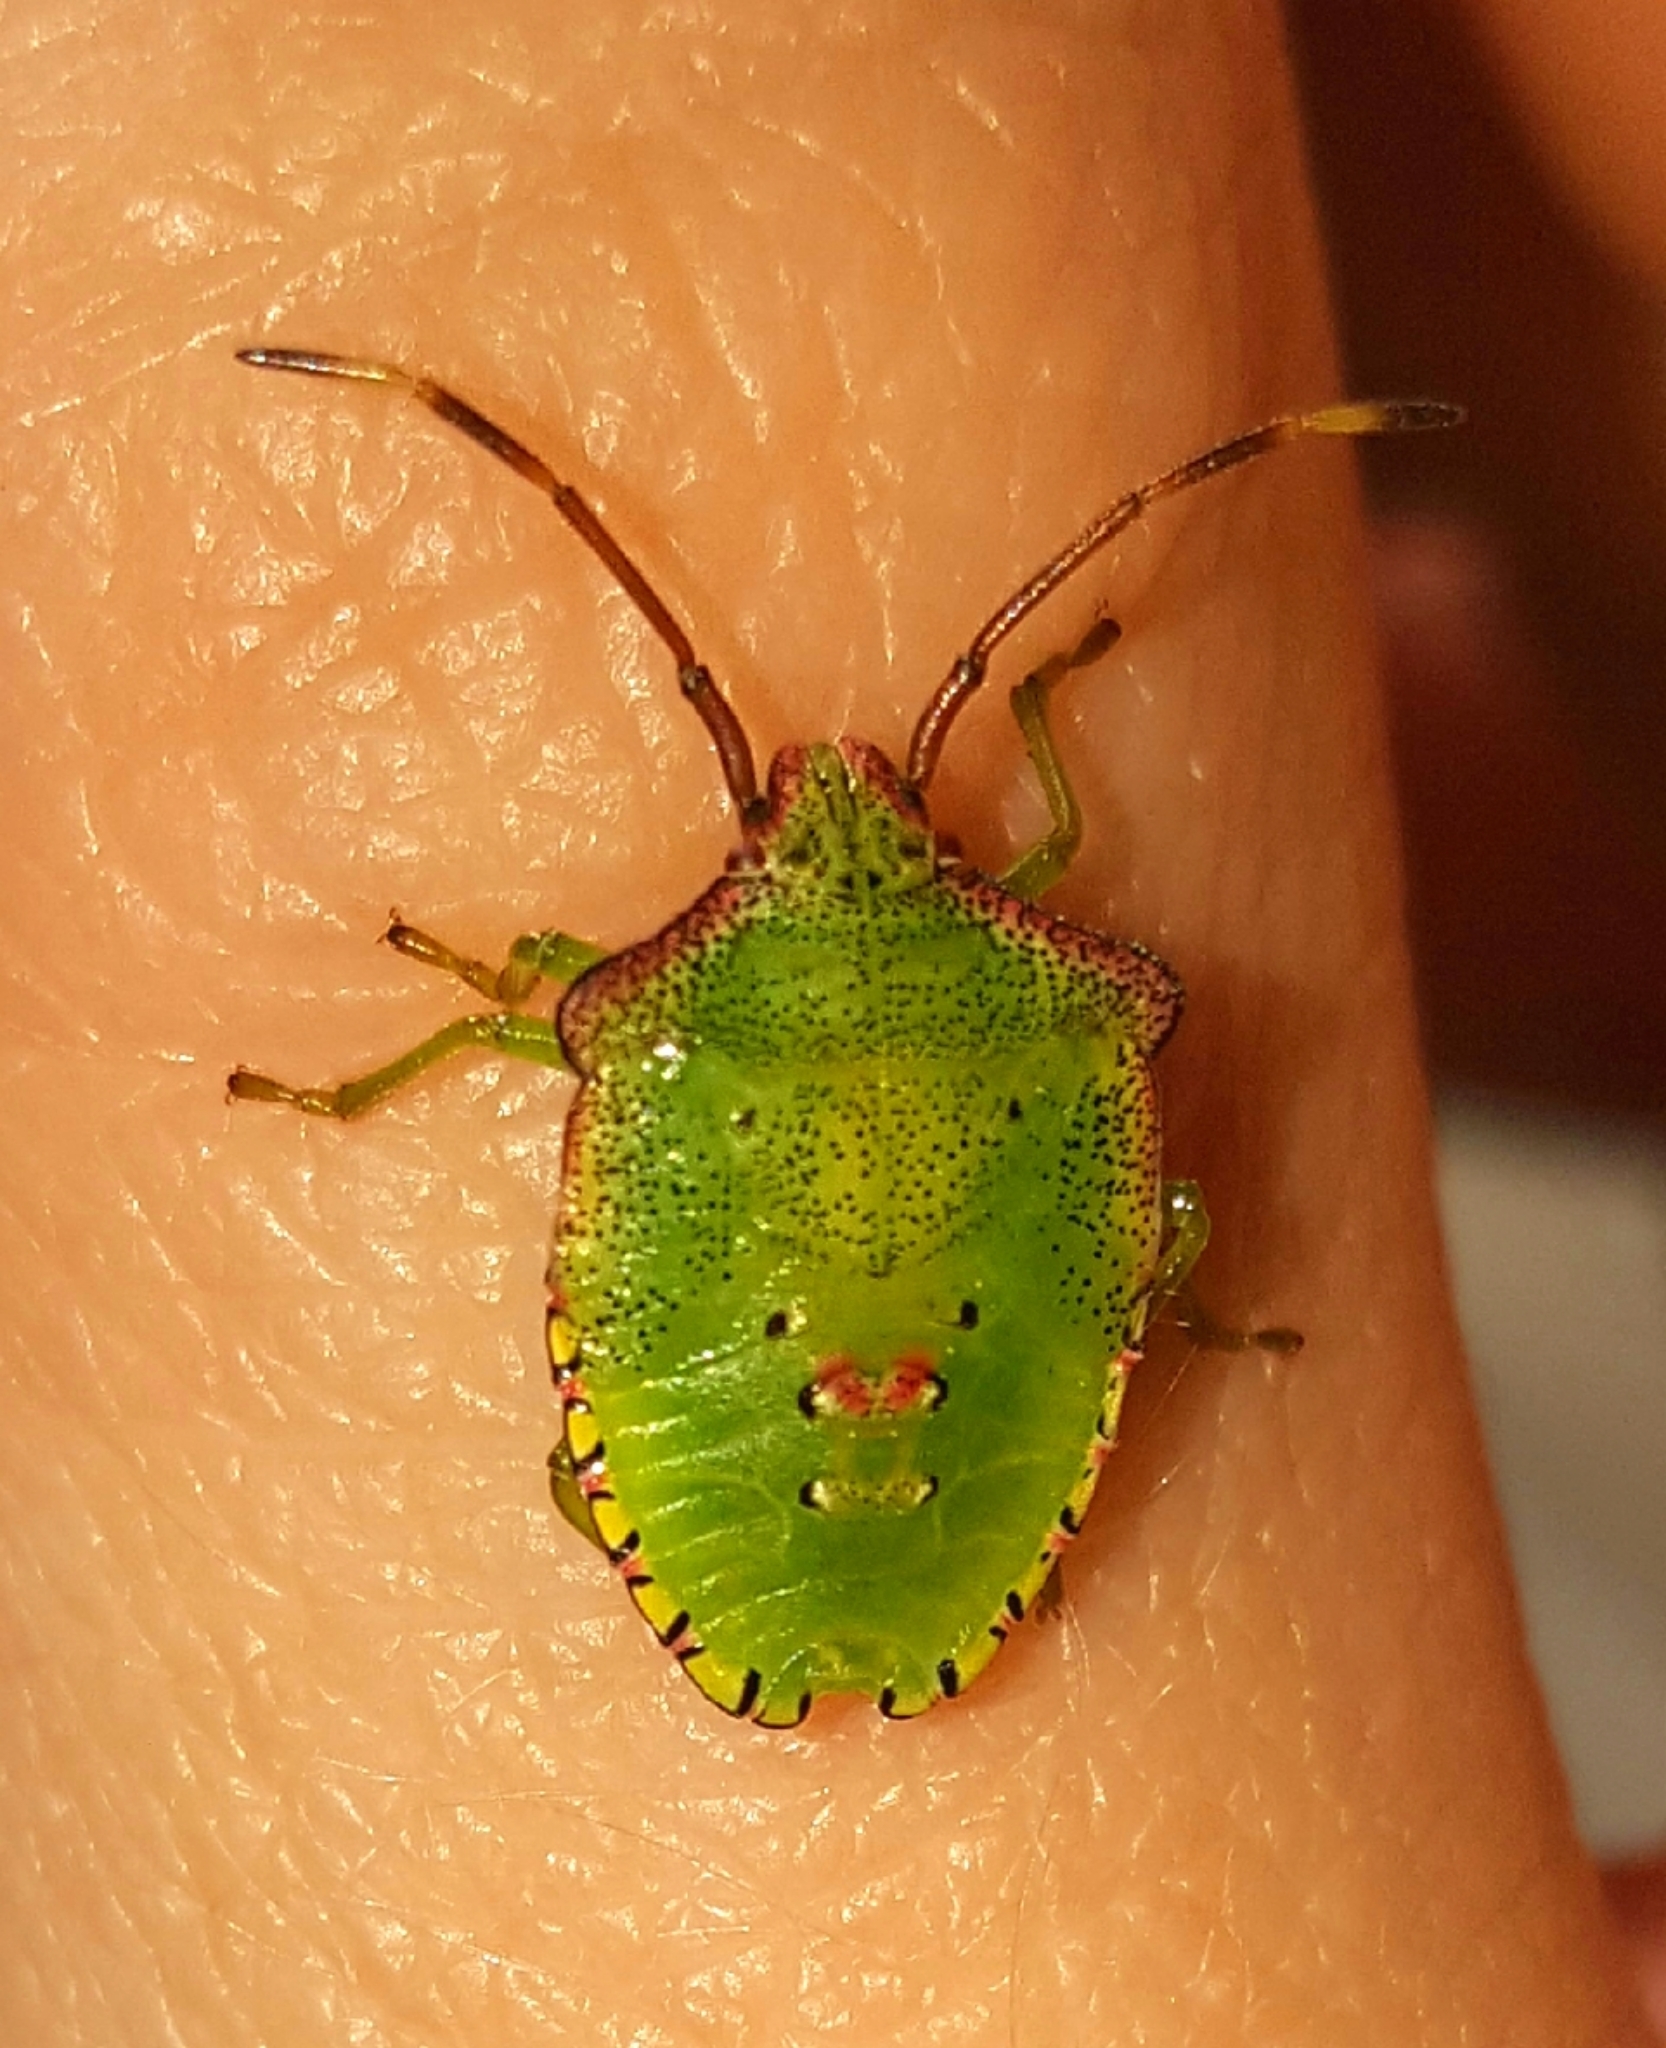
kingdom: Animalia
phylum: Arthropoda
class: Insecta
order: Hemiptera
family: Acanthosomatidae
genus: Acanthosoma
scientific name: Acanthosoma haemorrhoidale
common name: Hawthorn shieldbug
